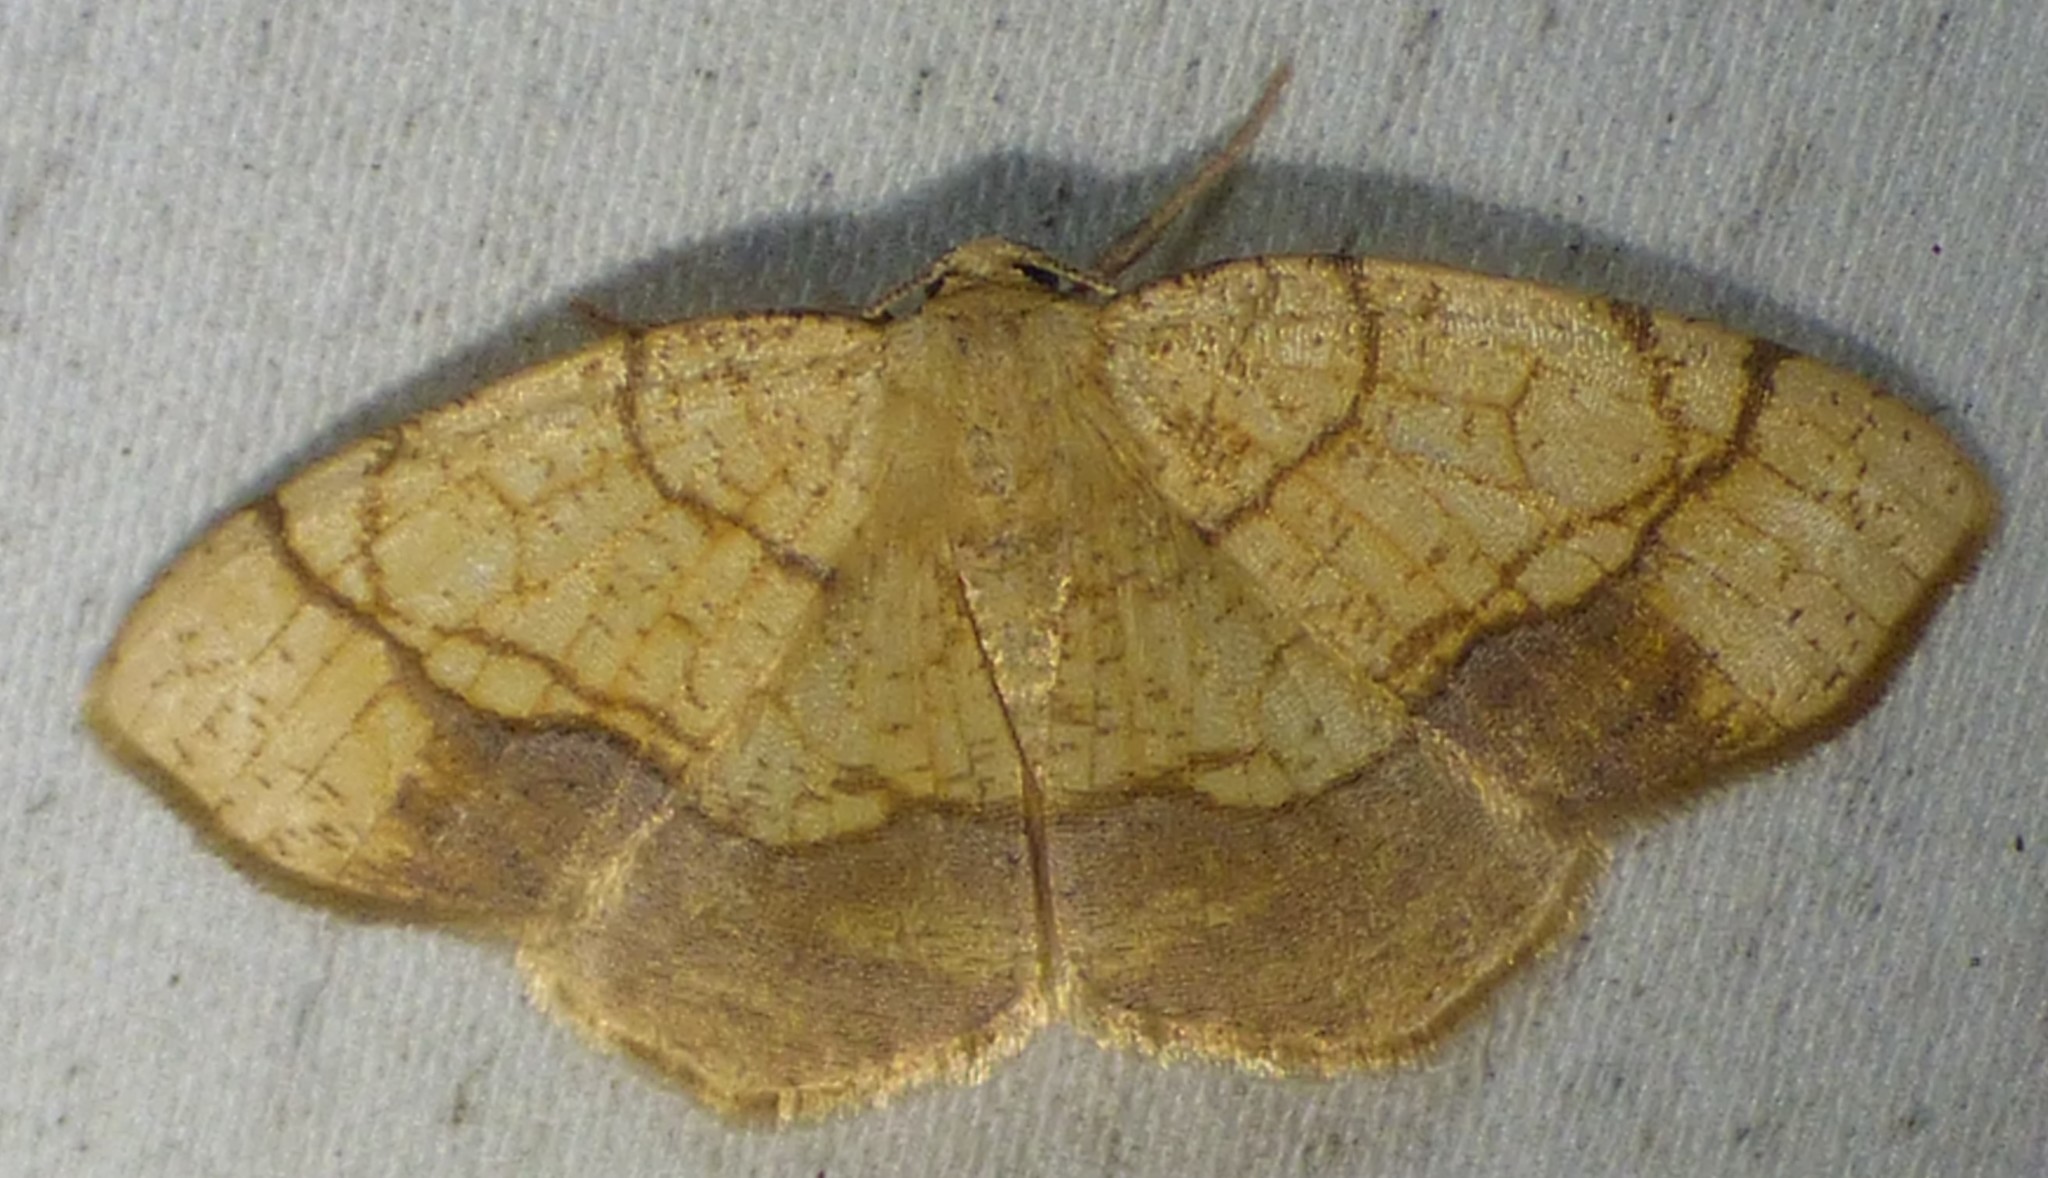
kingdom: Animalia
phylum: Arthropoda
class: Insecta
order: Lepidoptera
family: Geometridae
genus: Nematocampa
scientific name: Nematocampa resistaria
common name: Horned spanworm moth
